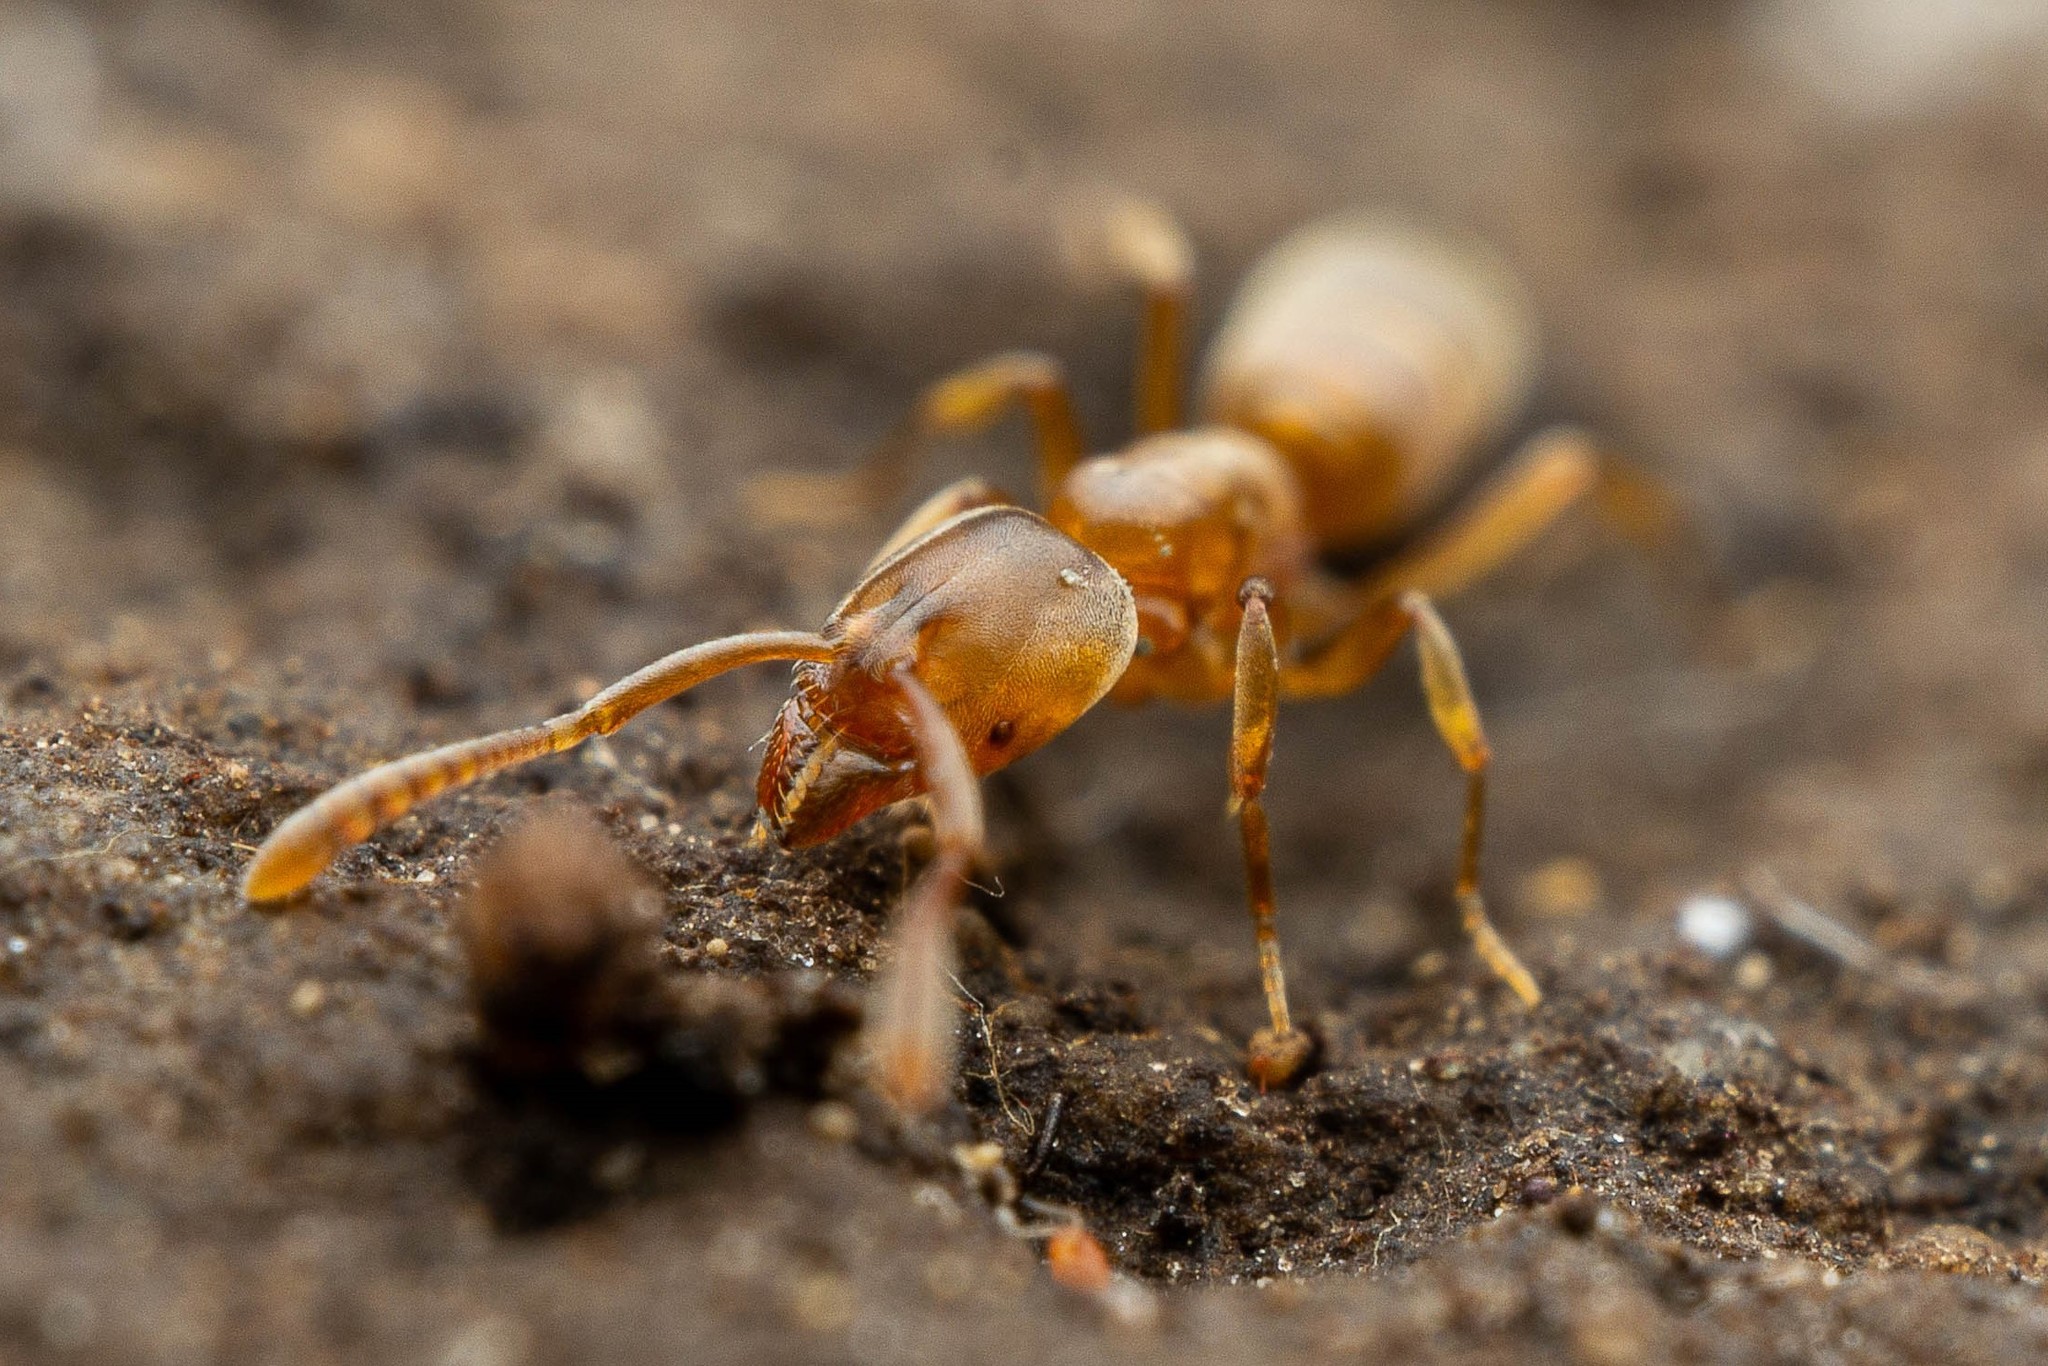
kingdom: Animalia
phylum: Arthropoda
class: Insecta
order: Hymenoptera
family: Formicidae
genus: Hypoponera
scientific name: Hypoponera opacior
